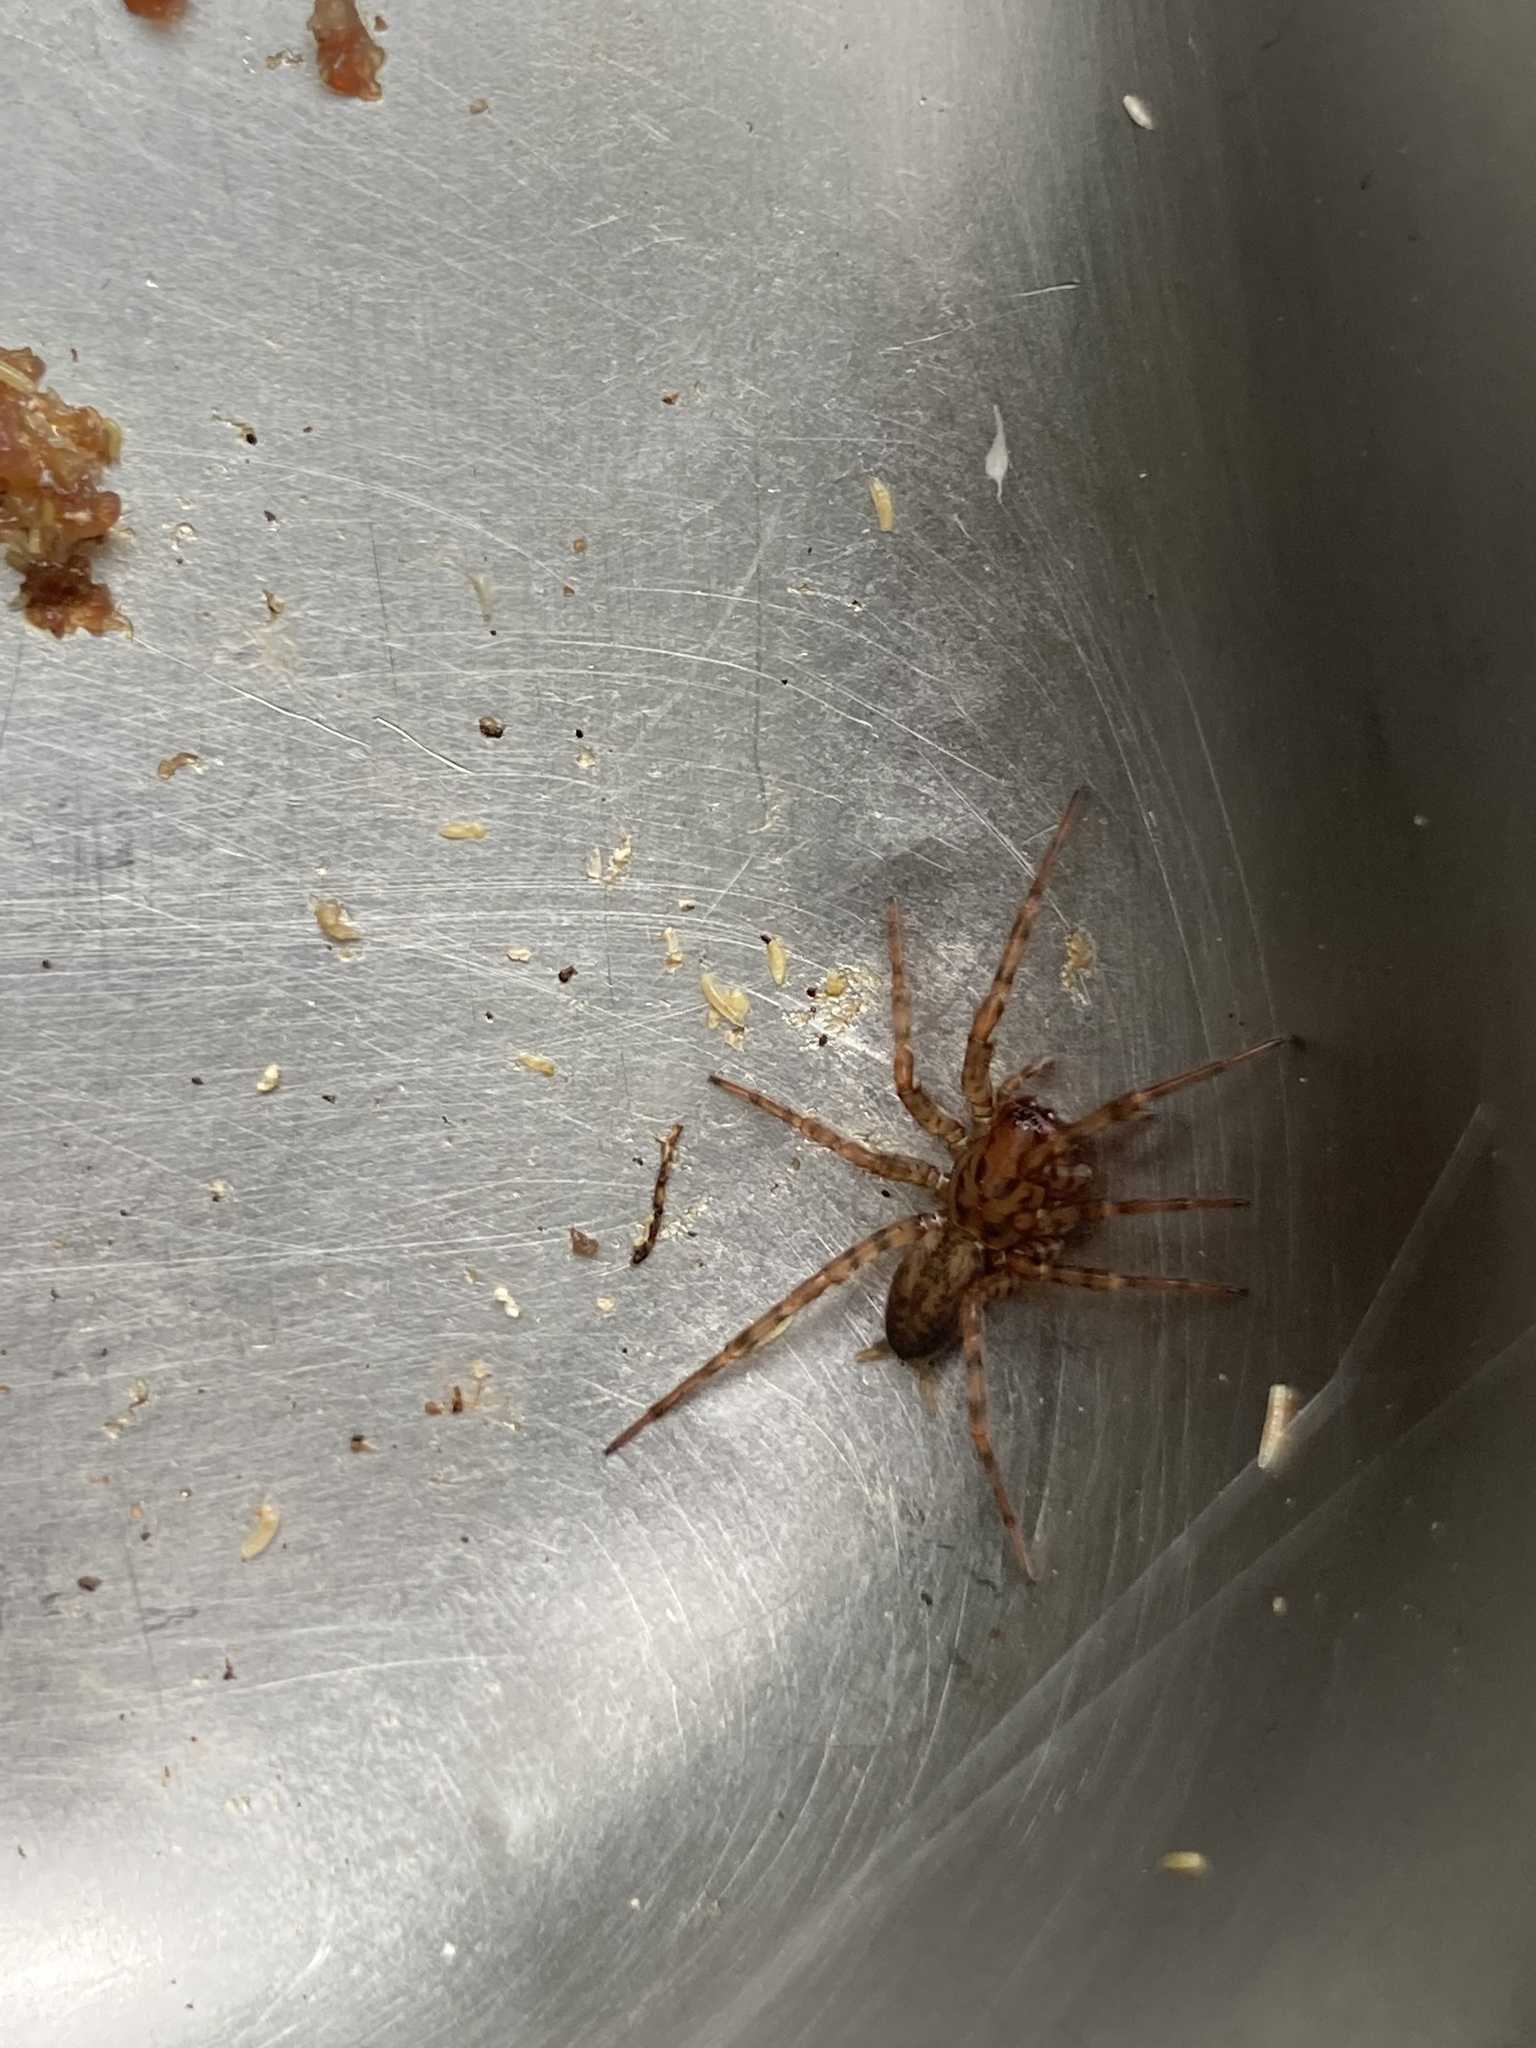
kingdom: Animalia
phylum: Arthropoda
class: Arachnida
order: Araneae
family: Agelenidae
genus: Coras
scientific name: Coras
